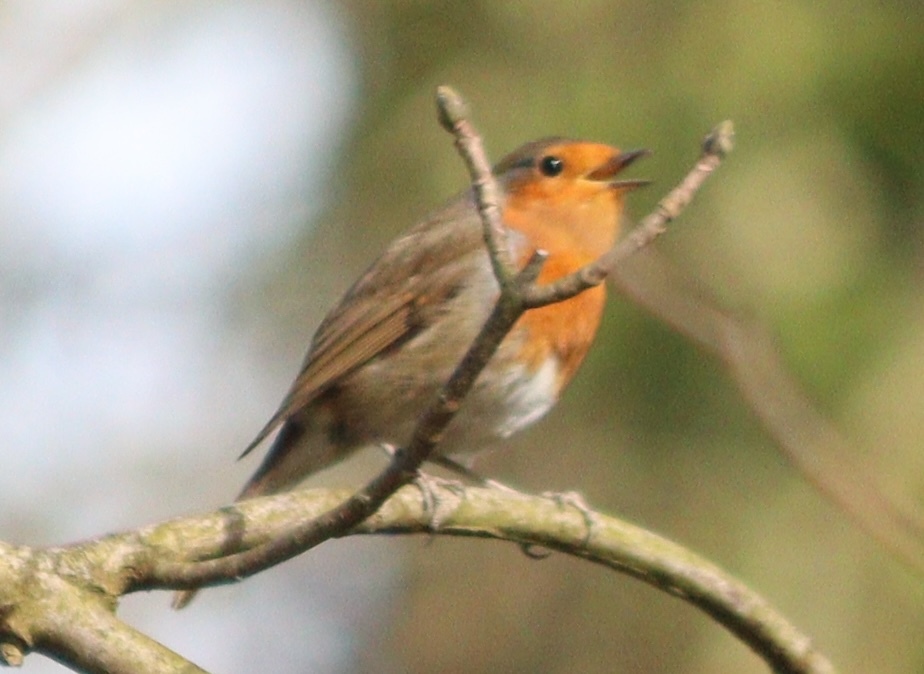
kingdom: Animalia
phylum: Chordata
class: Aves
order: Passeriformes
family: Muscicapidae
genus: Erithacus
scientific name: Erithacus rubecula
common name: European robin
